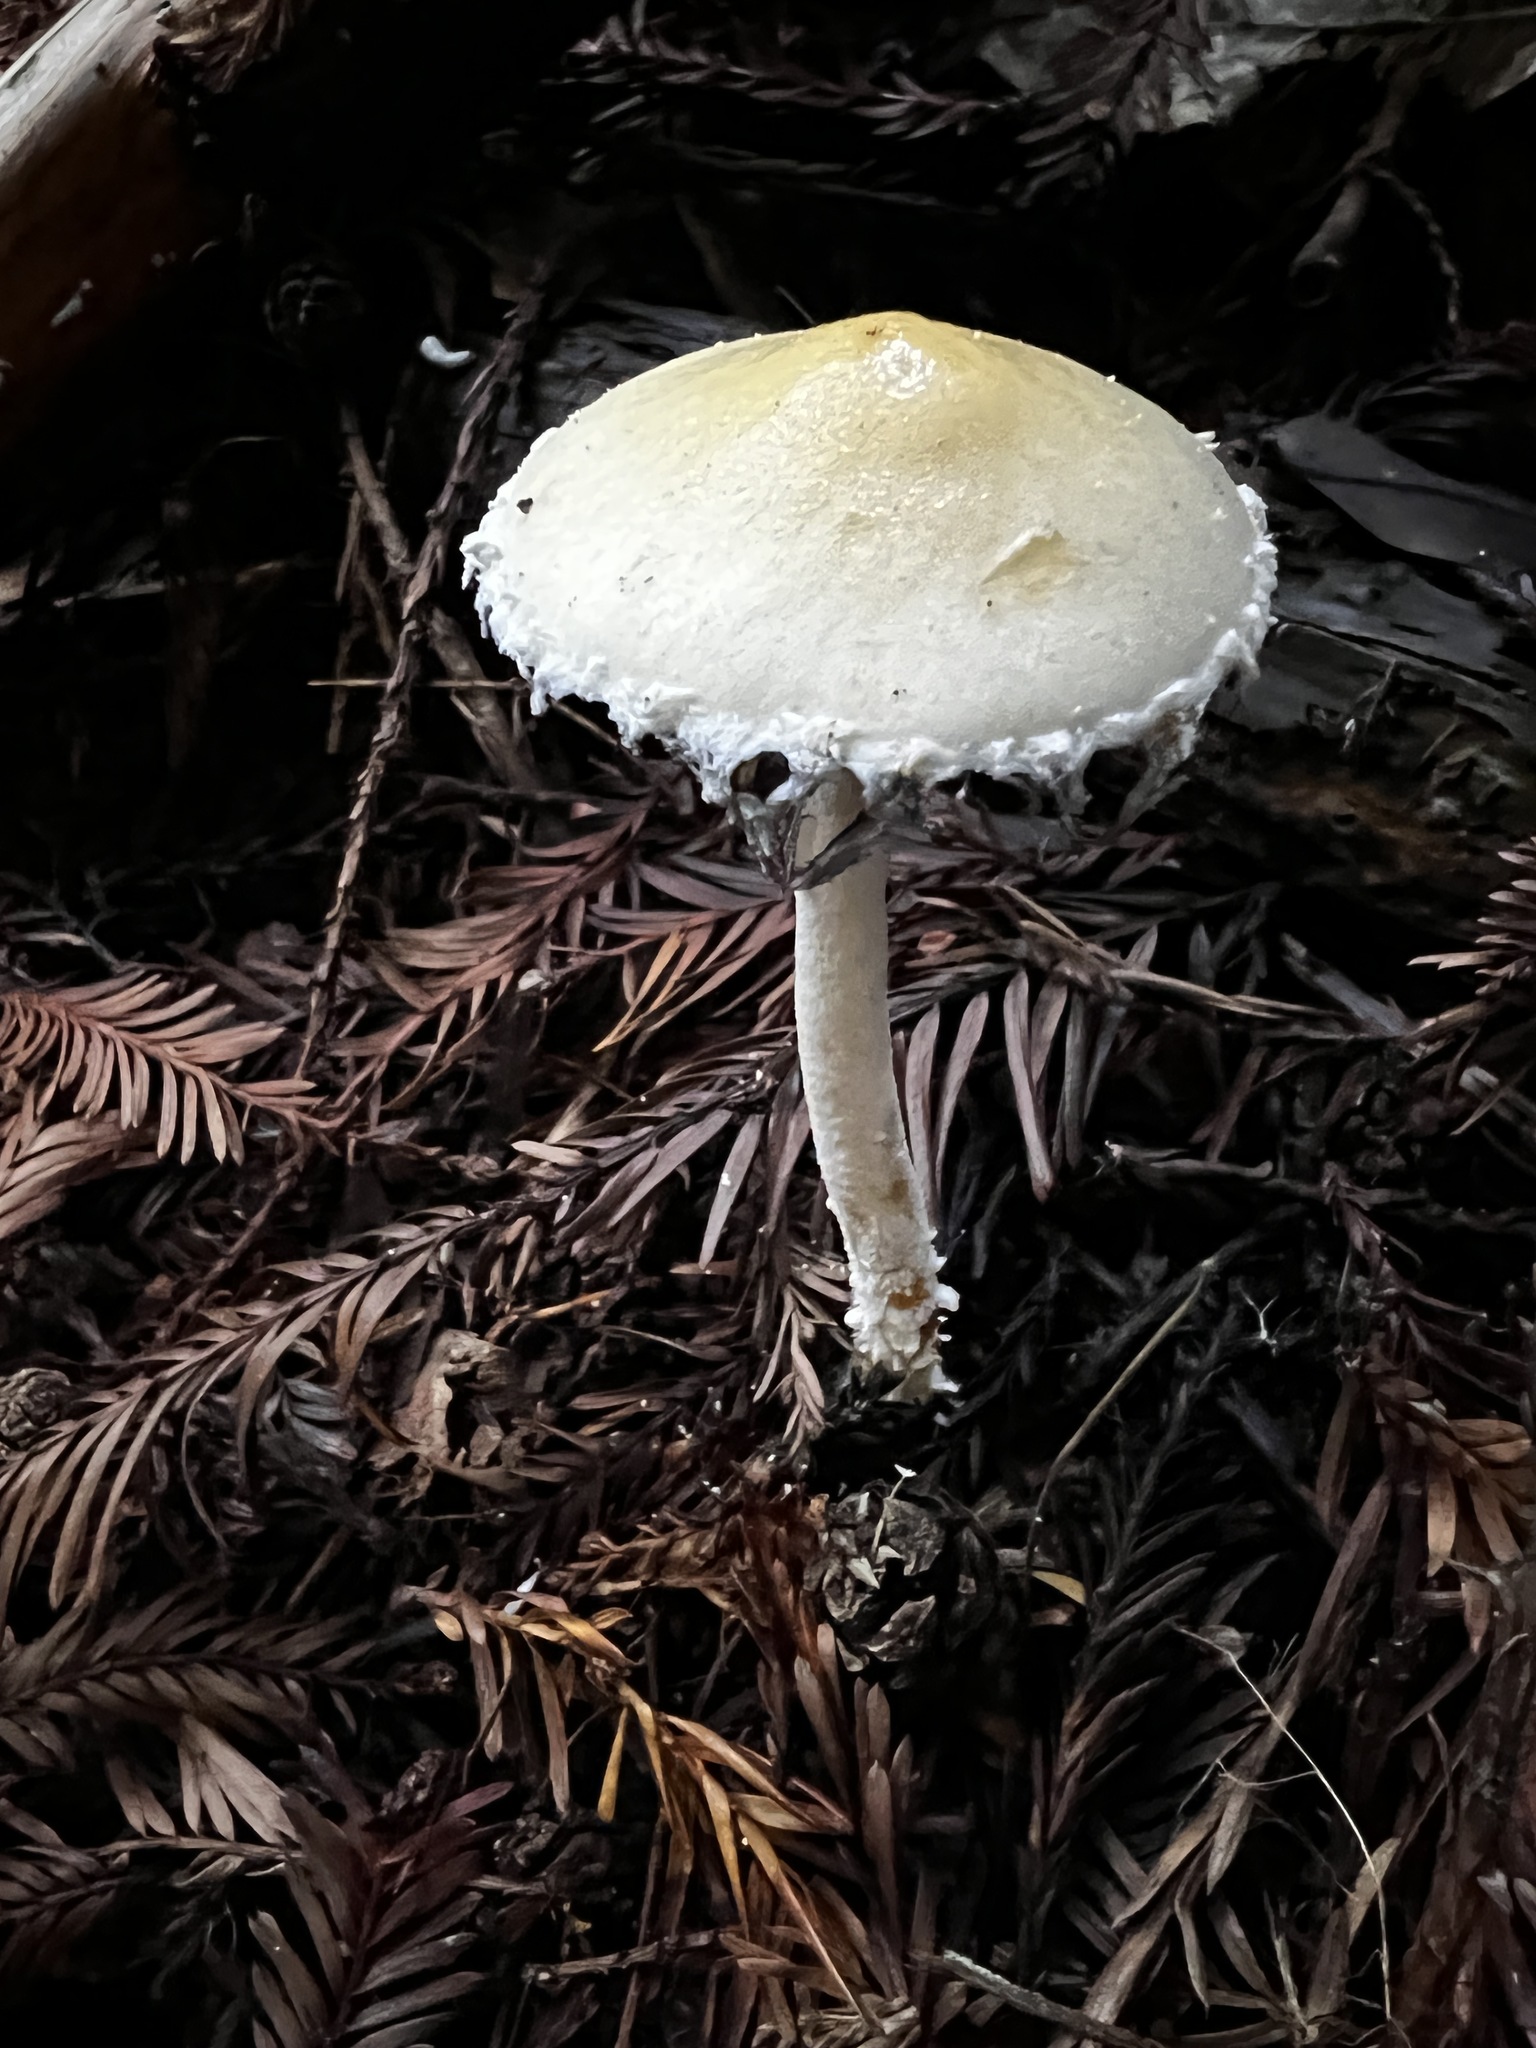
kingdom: Fungi
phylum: Basidiomycota
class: Agaricomycetes
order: Agaricales
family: Strophariaceae
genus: Stropharia
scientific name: Stropharia ambigua
